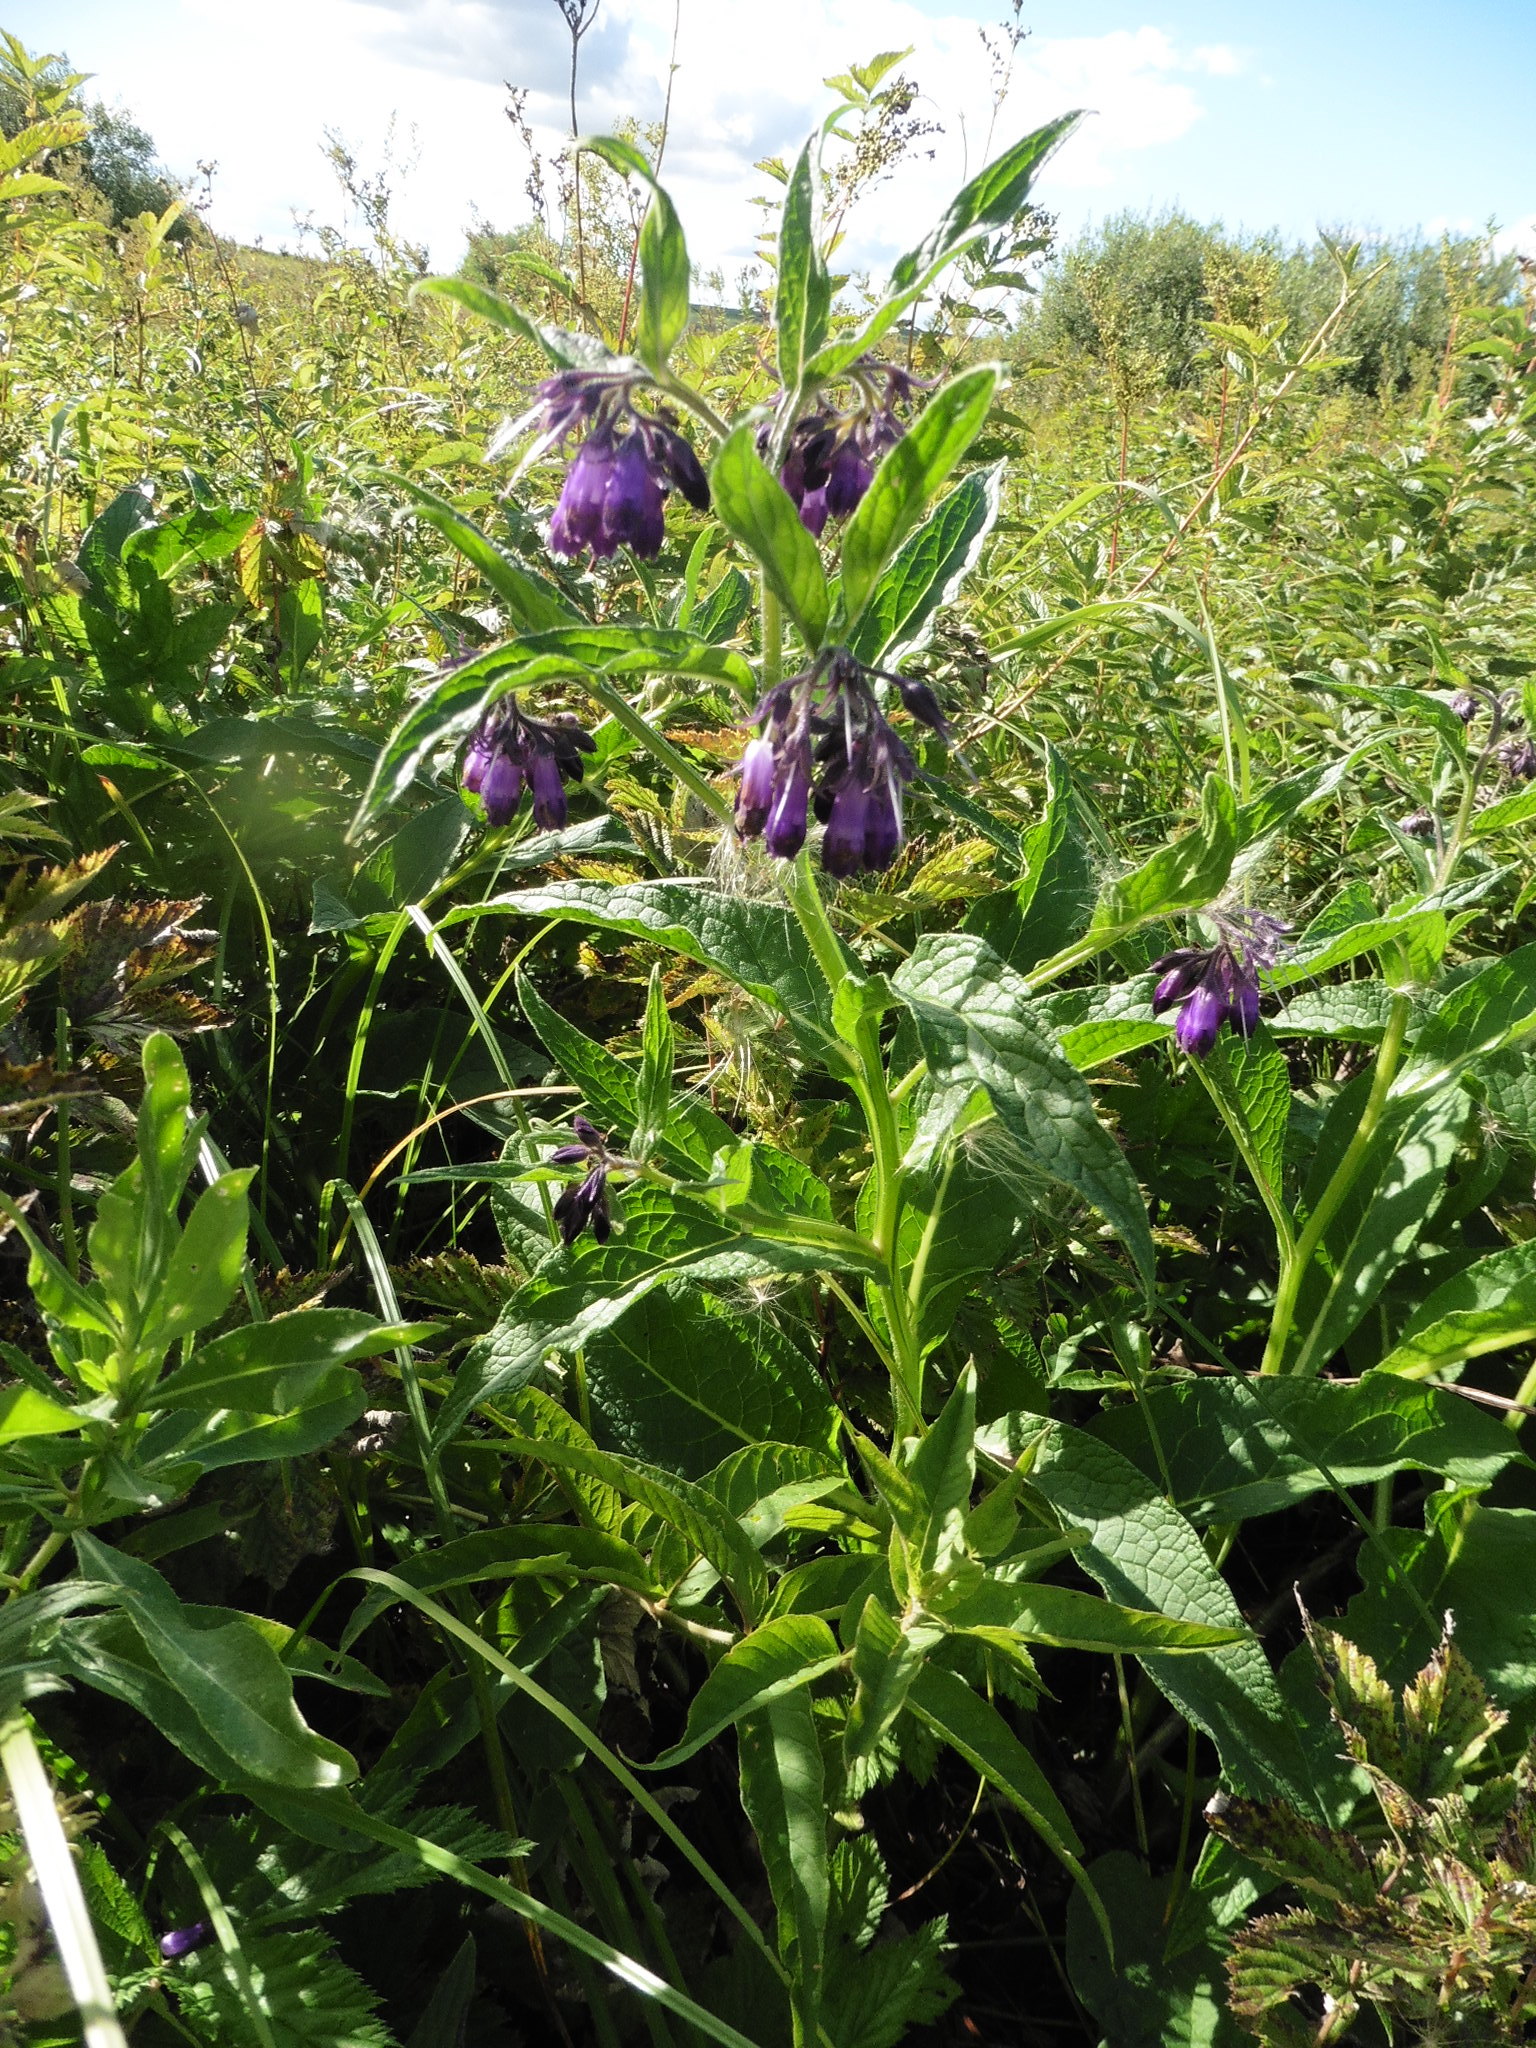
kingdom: Plantae
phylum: Tracheophyta
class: Magnoliopsida
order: Boraginales
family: Boraginaceae
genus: Symphytum
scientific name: Symphytum officinale
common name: Common comfrey
